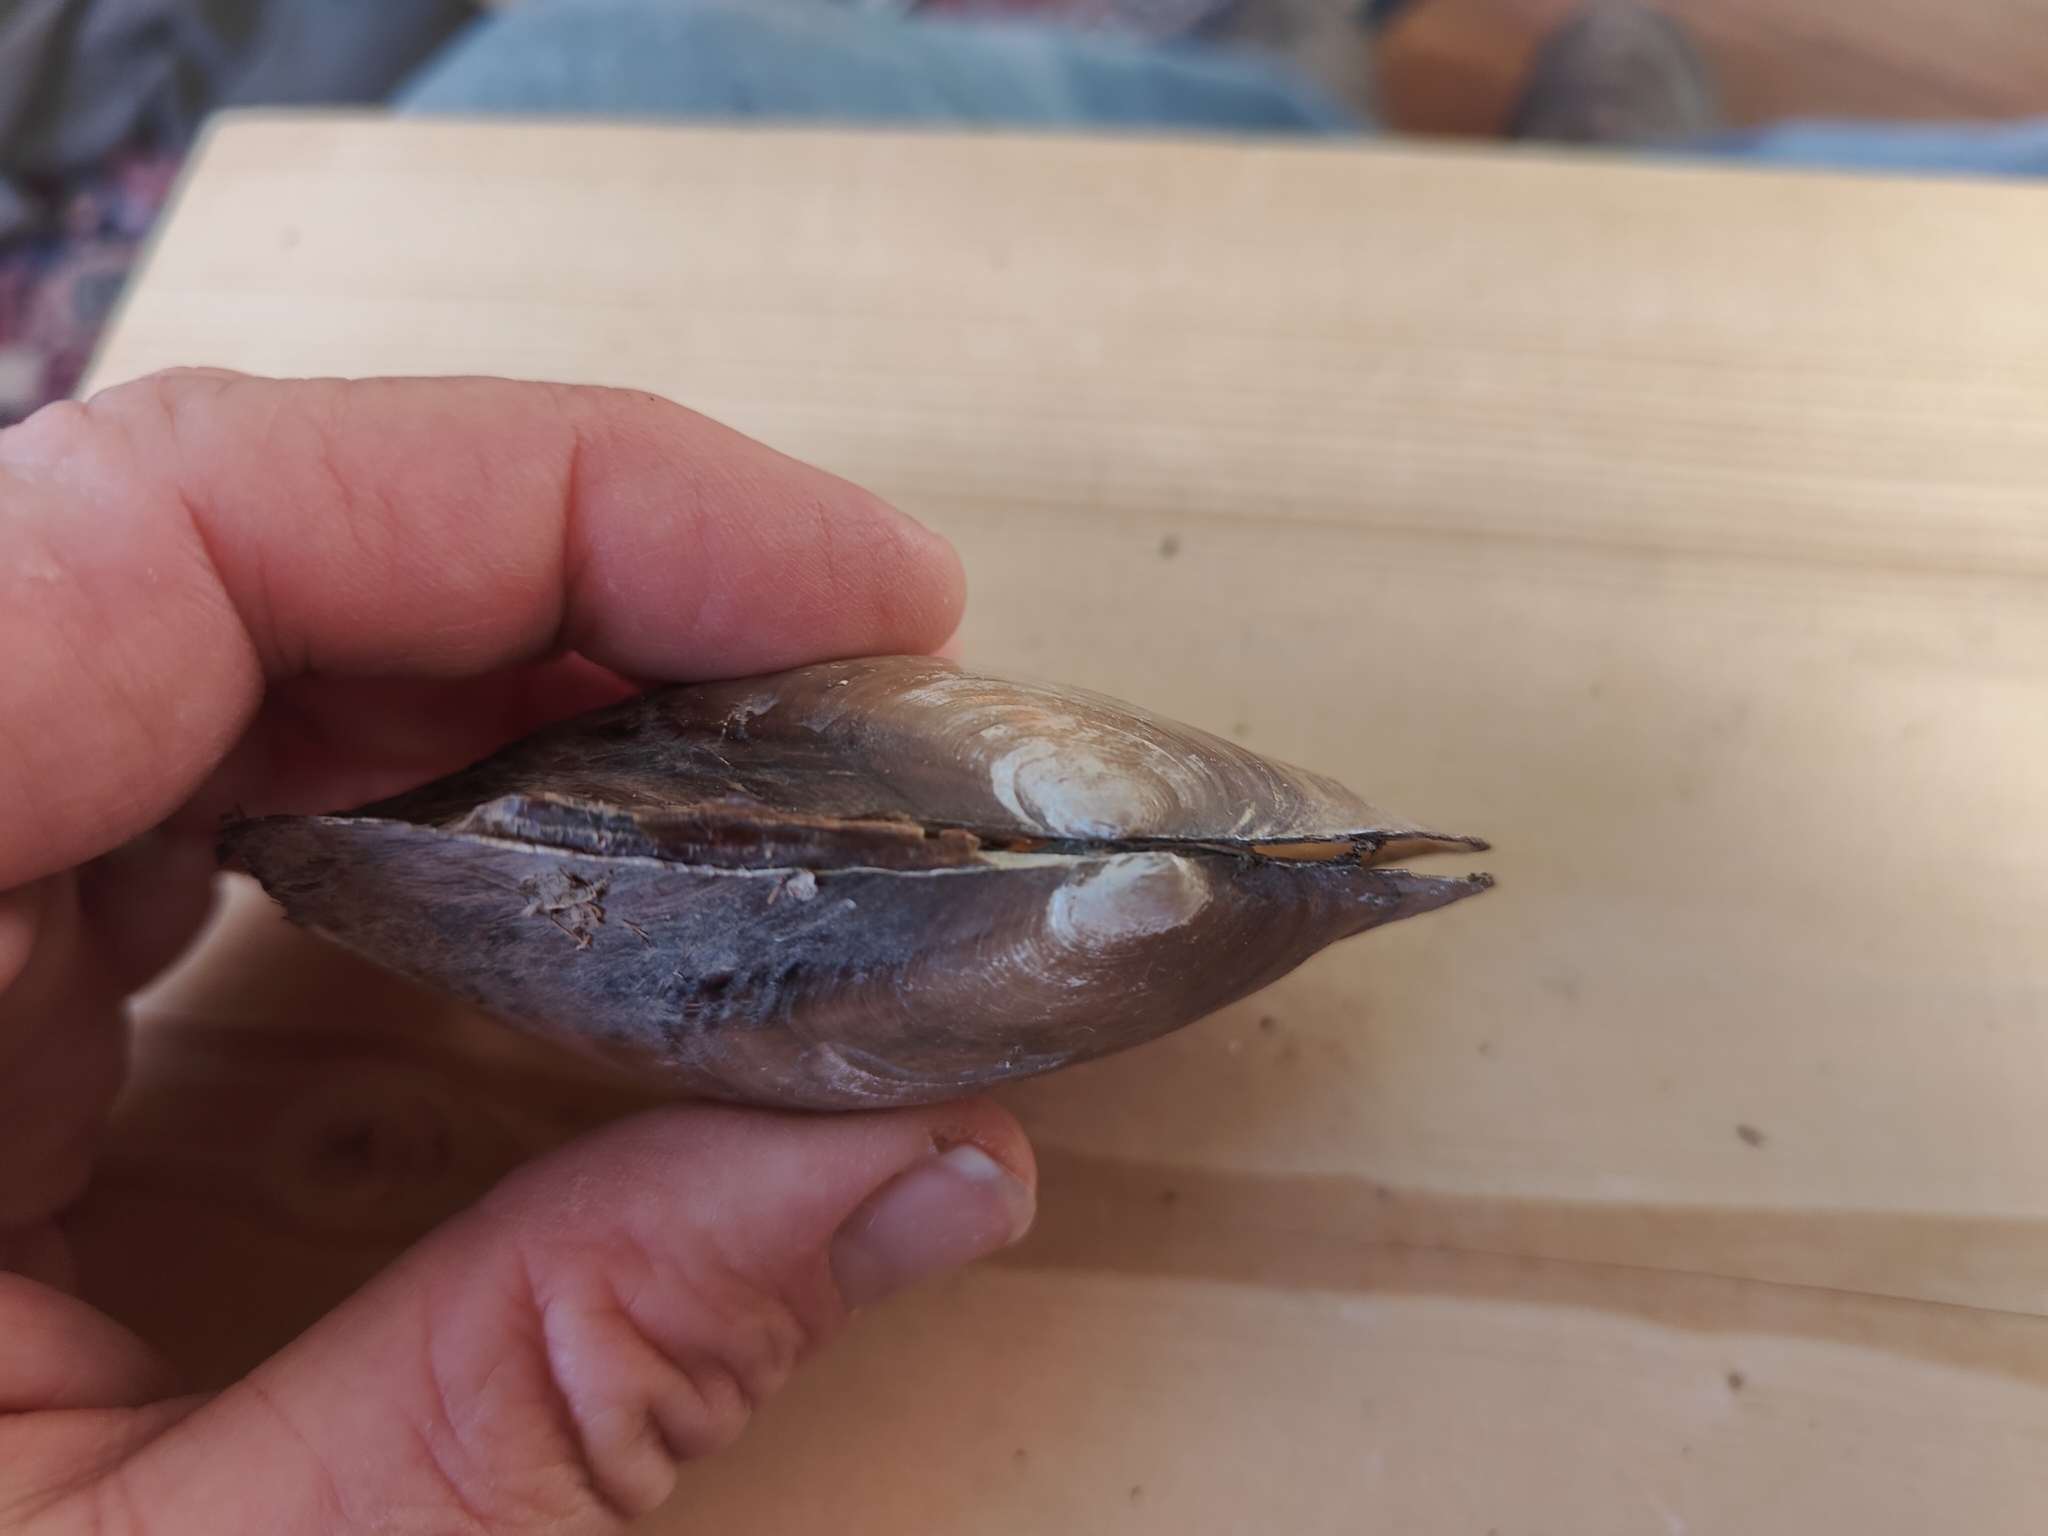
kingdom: Animalia
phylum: Mollusca
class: Bivalvia
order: Unionida
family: Unionidae
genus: Potamilus
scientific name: Potamilus fragilis
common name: Fragile papershell
